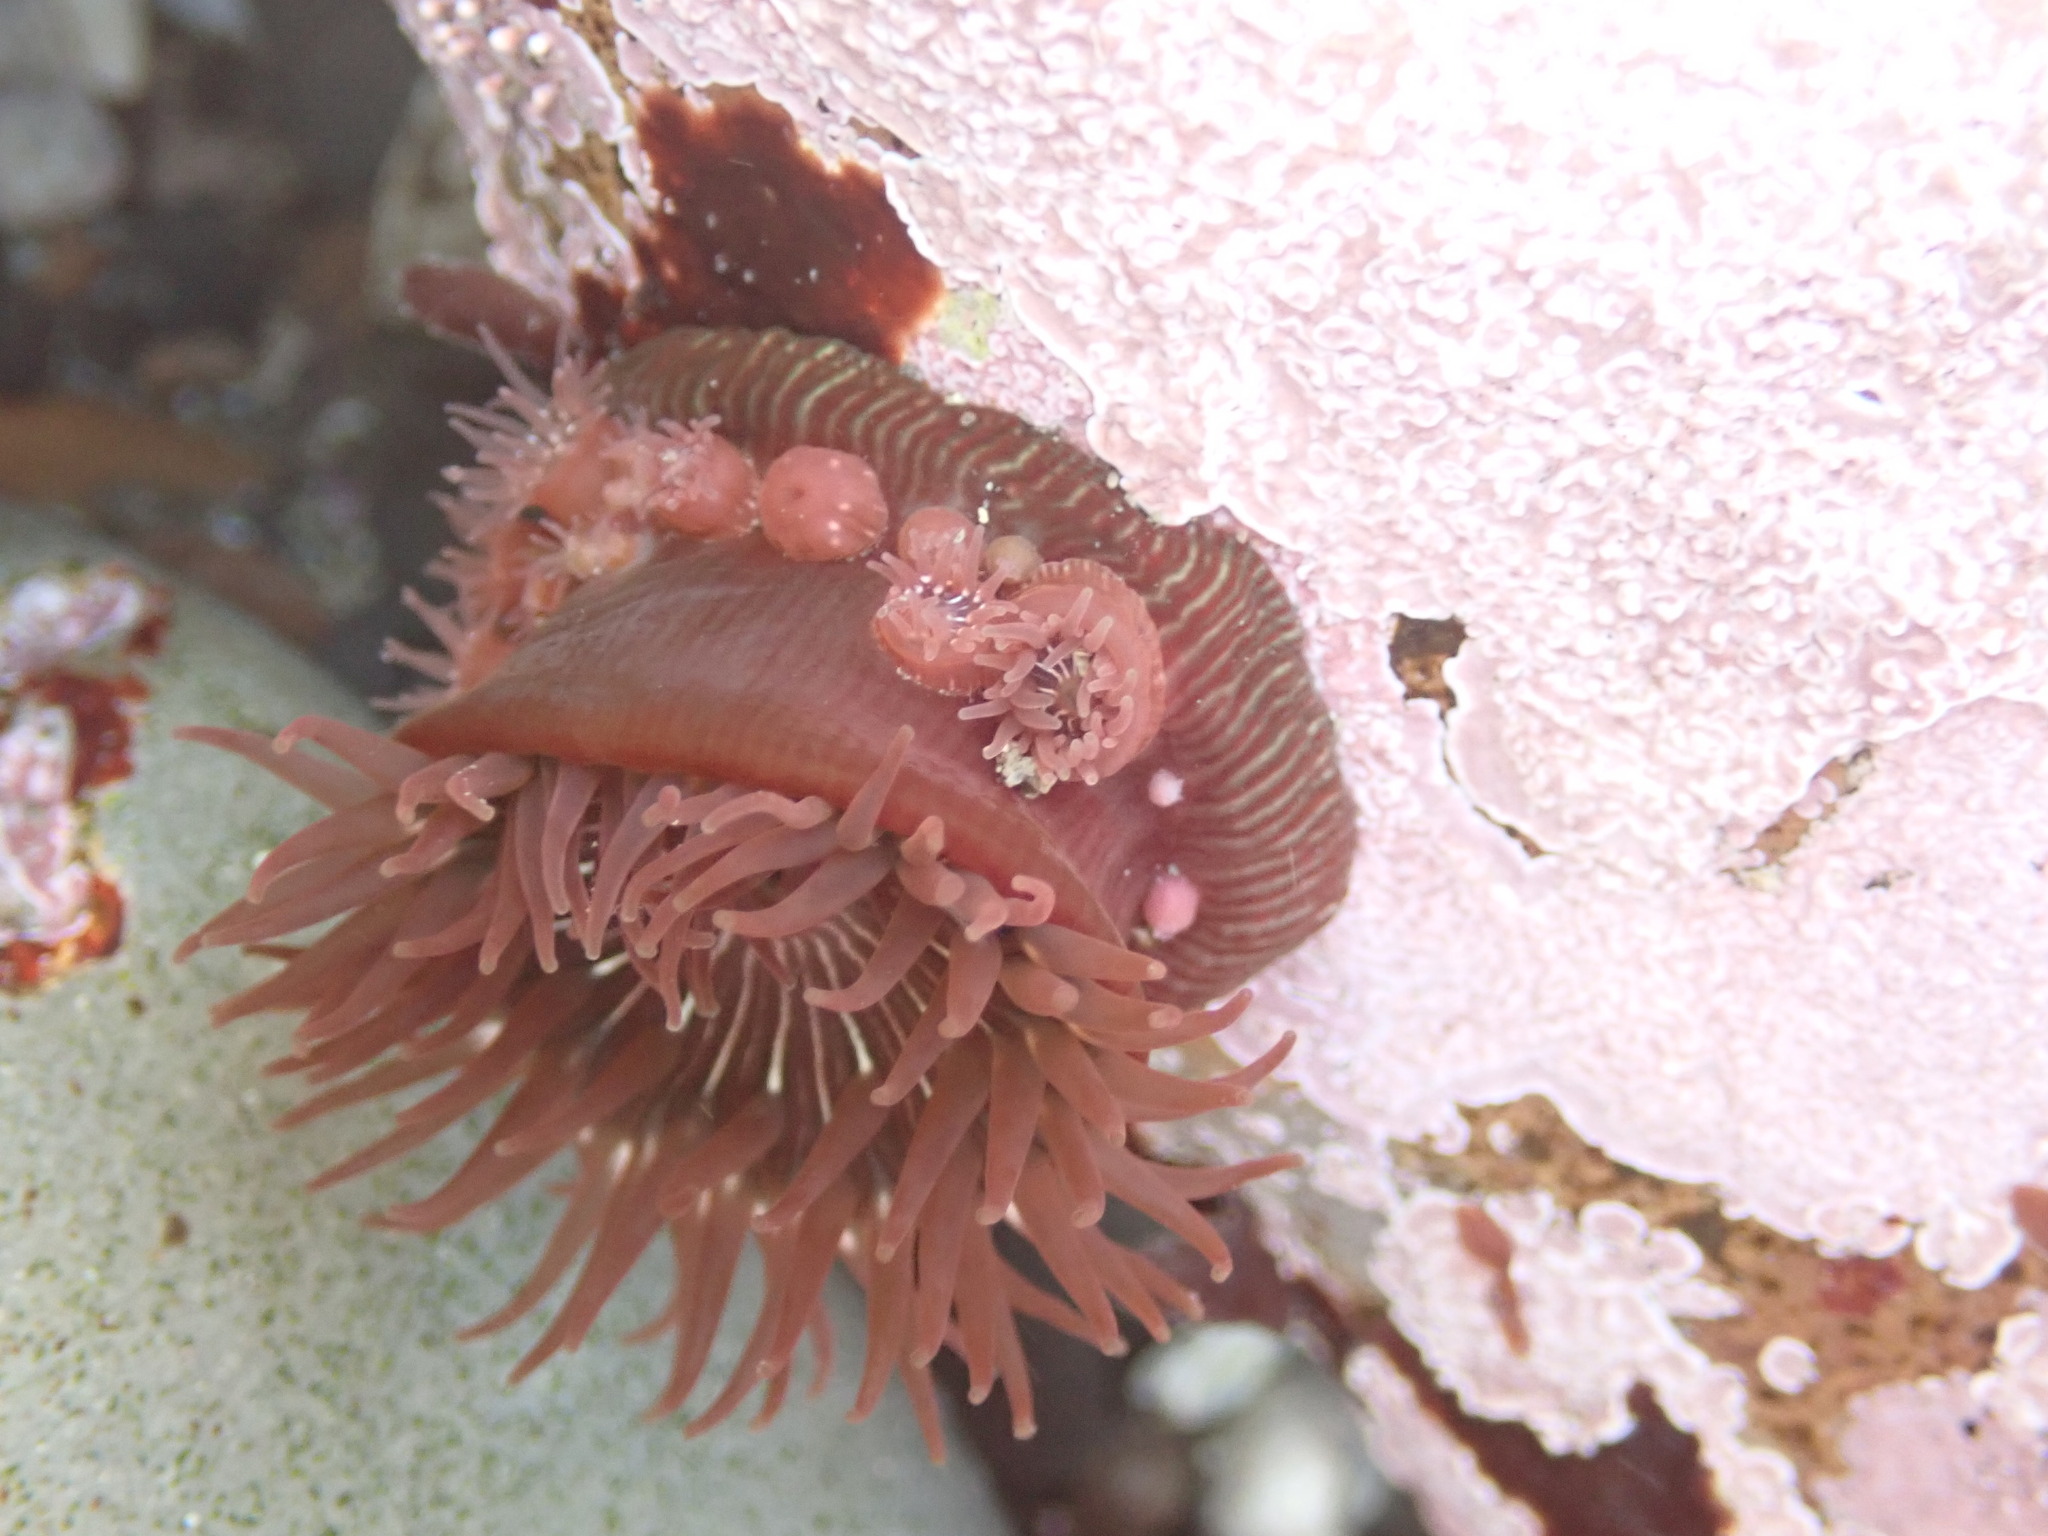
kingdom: Animalia
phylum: Cnidaria
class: Anthozoa
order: Actiniaria
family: Actiniidae
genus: Epiactis
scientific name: Epiactis prolifera
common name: Brooding anemone
